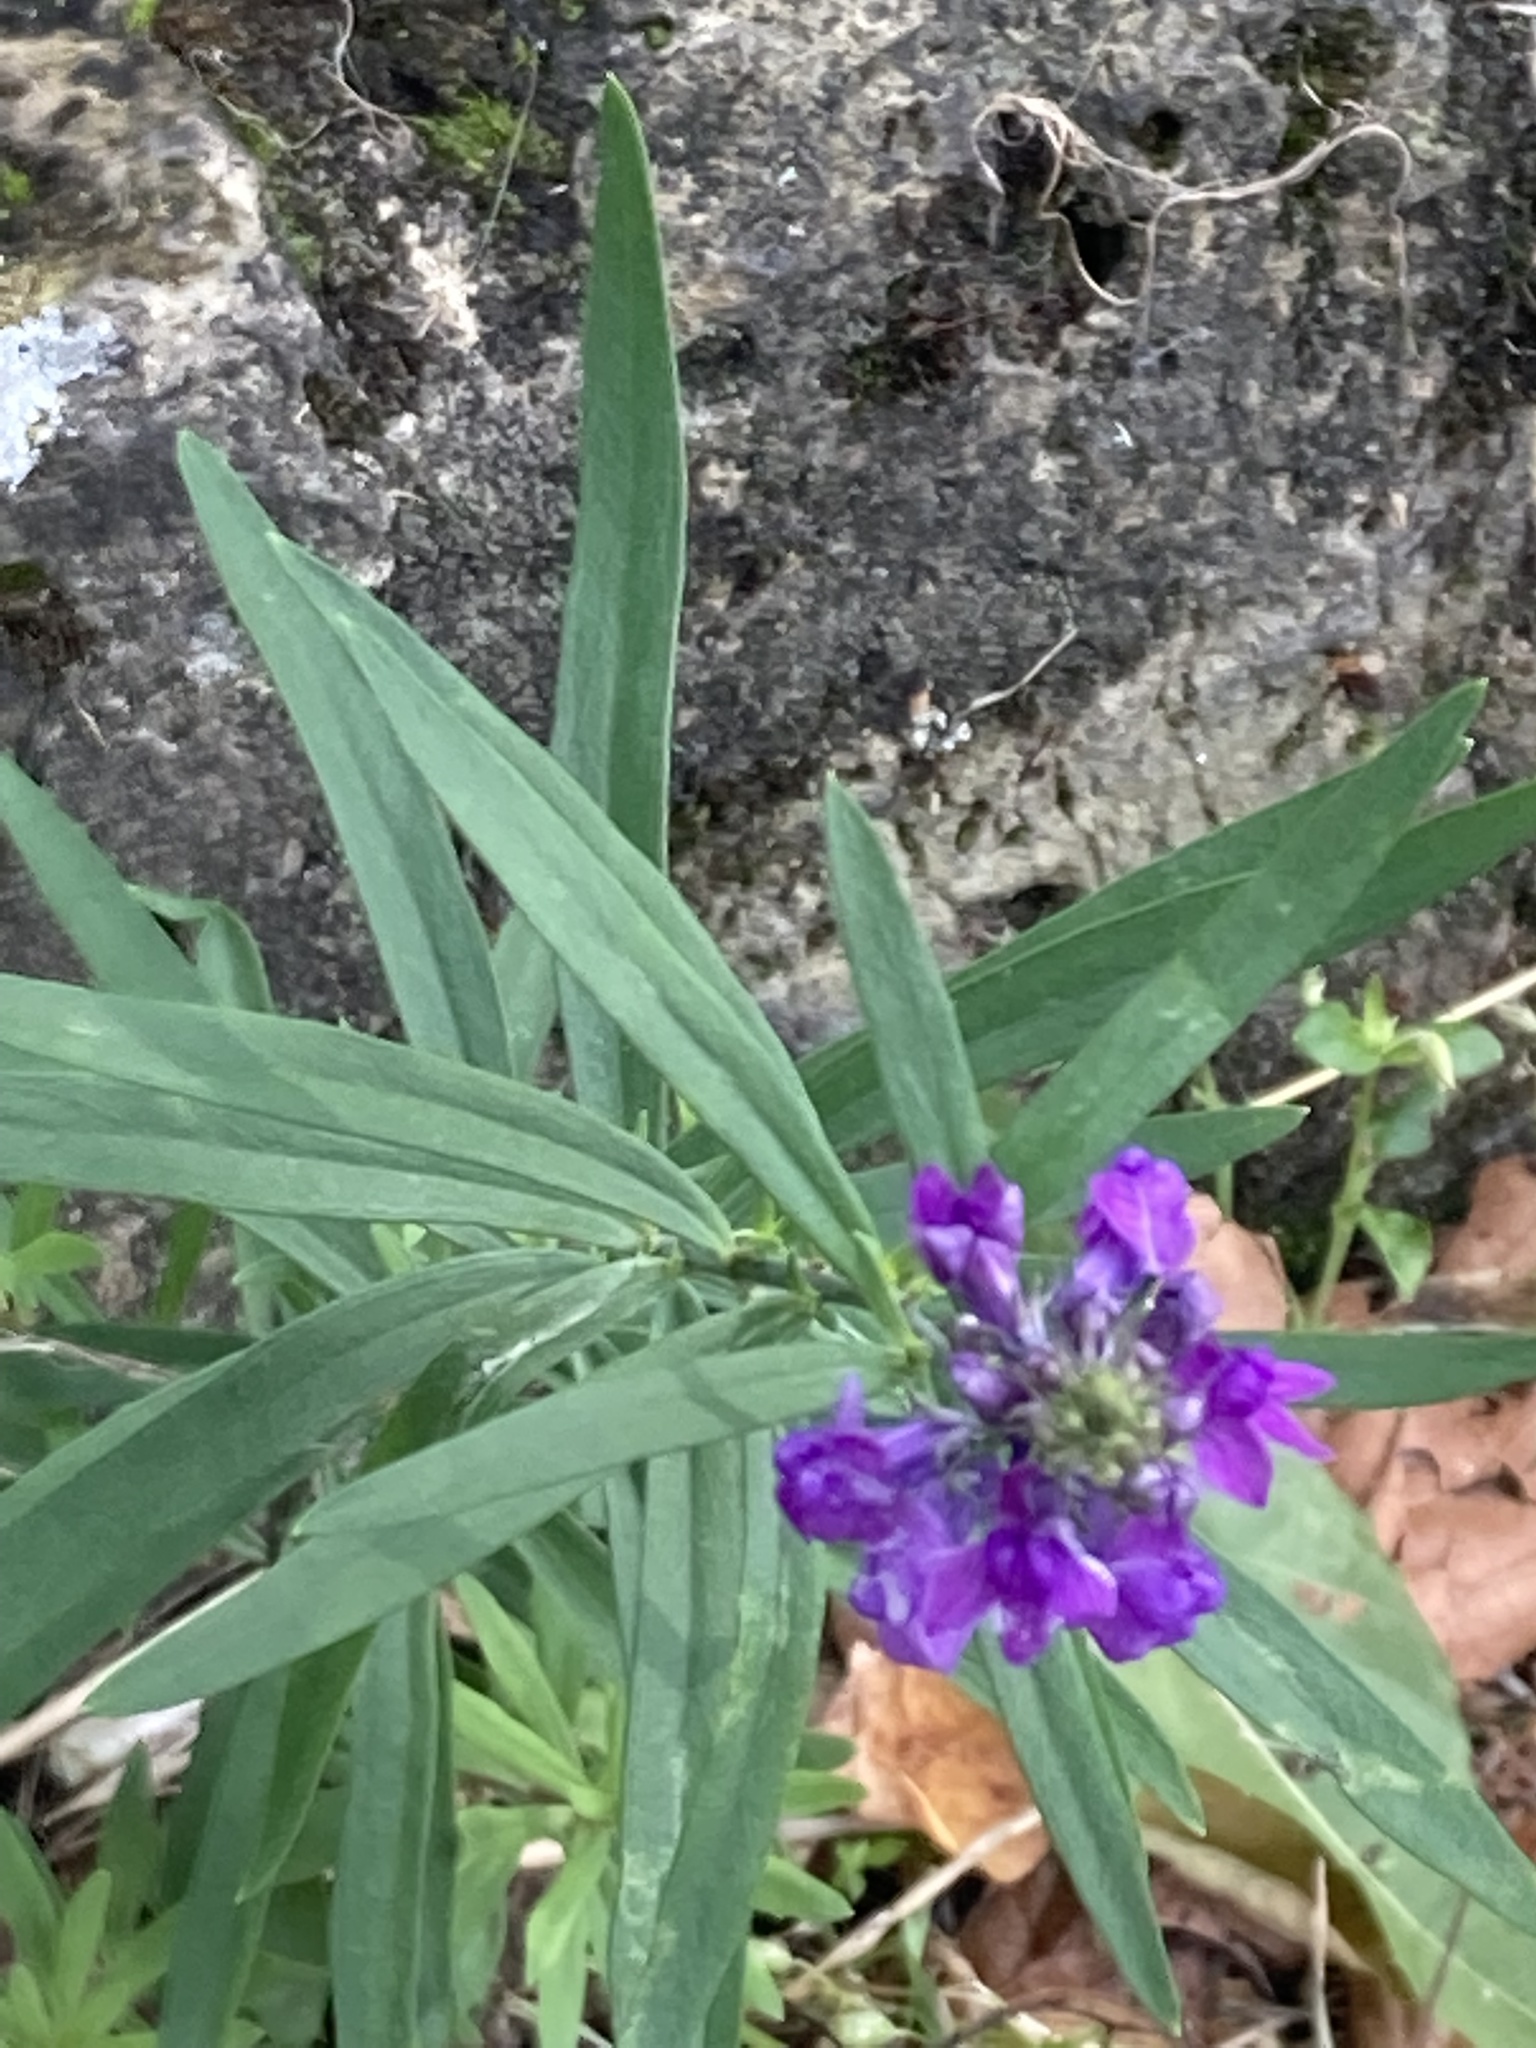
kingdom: Plantae
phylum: Tracheophyta
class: Magnoliopsida
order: Lamiales
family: Plantaginaceae
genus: Linaria
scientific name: Linaria purpurea
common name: Purple toadflax
